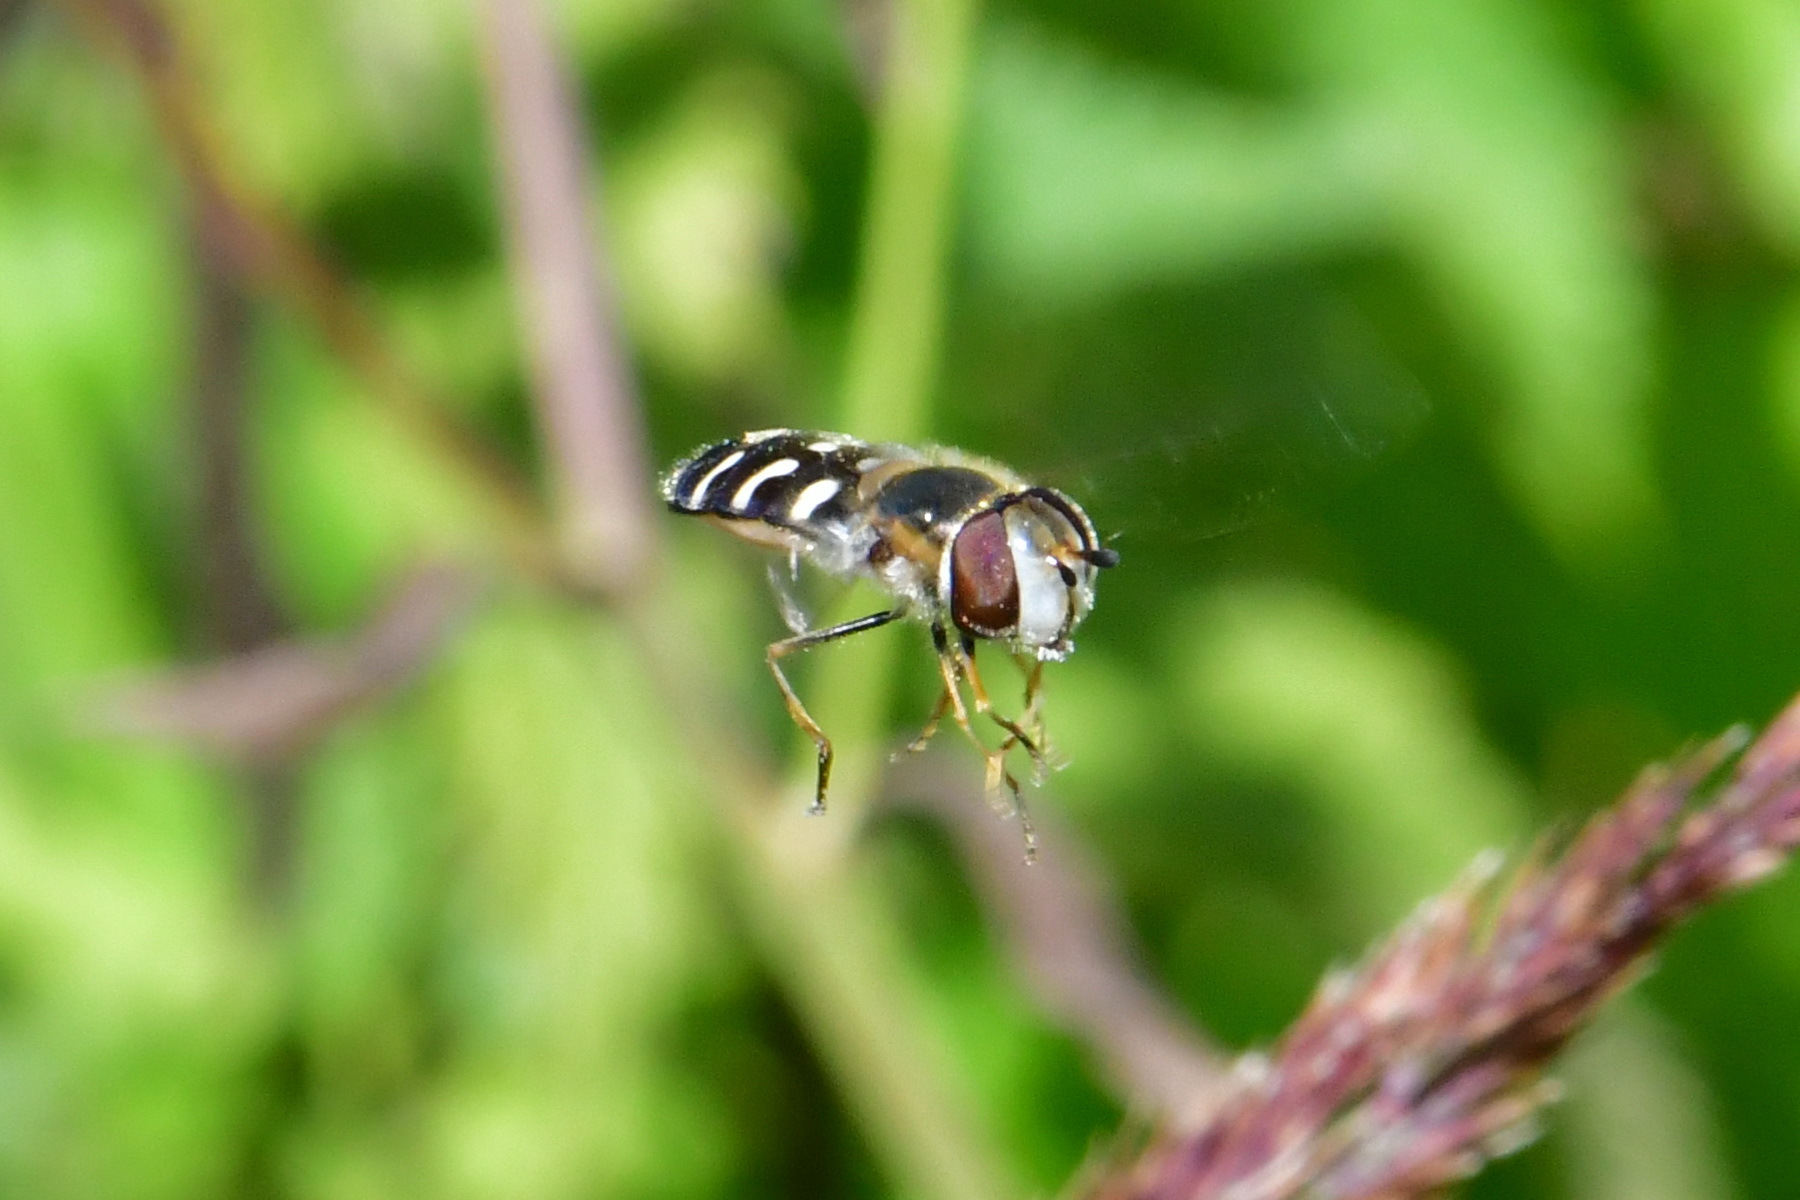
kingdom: Animalia
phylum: Arthropoda
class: Insecta
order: Diptera
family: Syrphidae
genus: Scaeva
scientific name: Scaeva pyrastri
